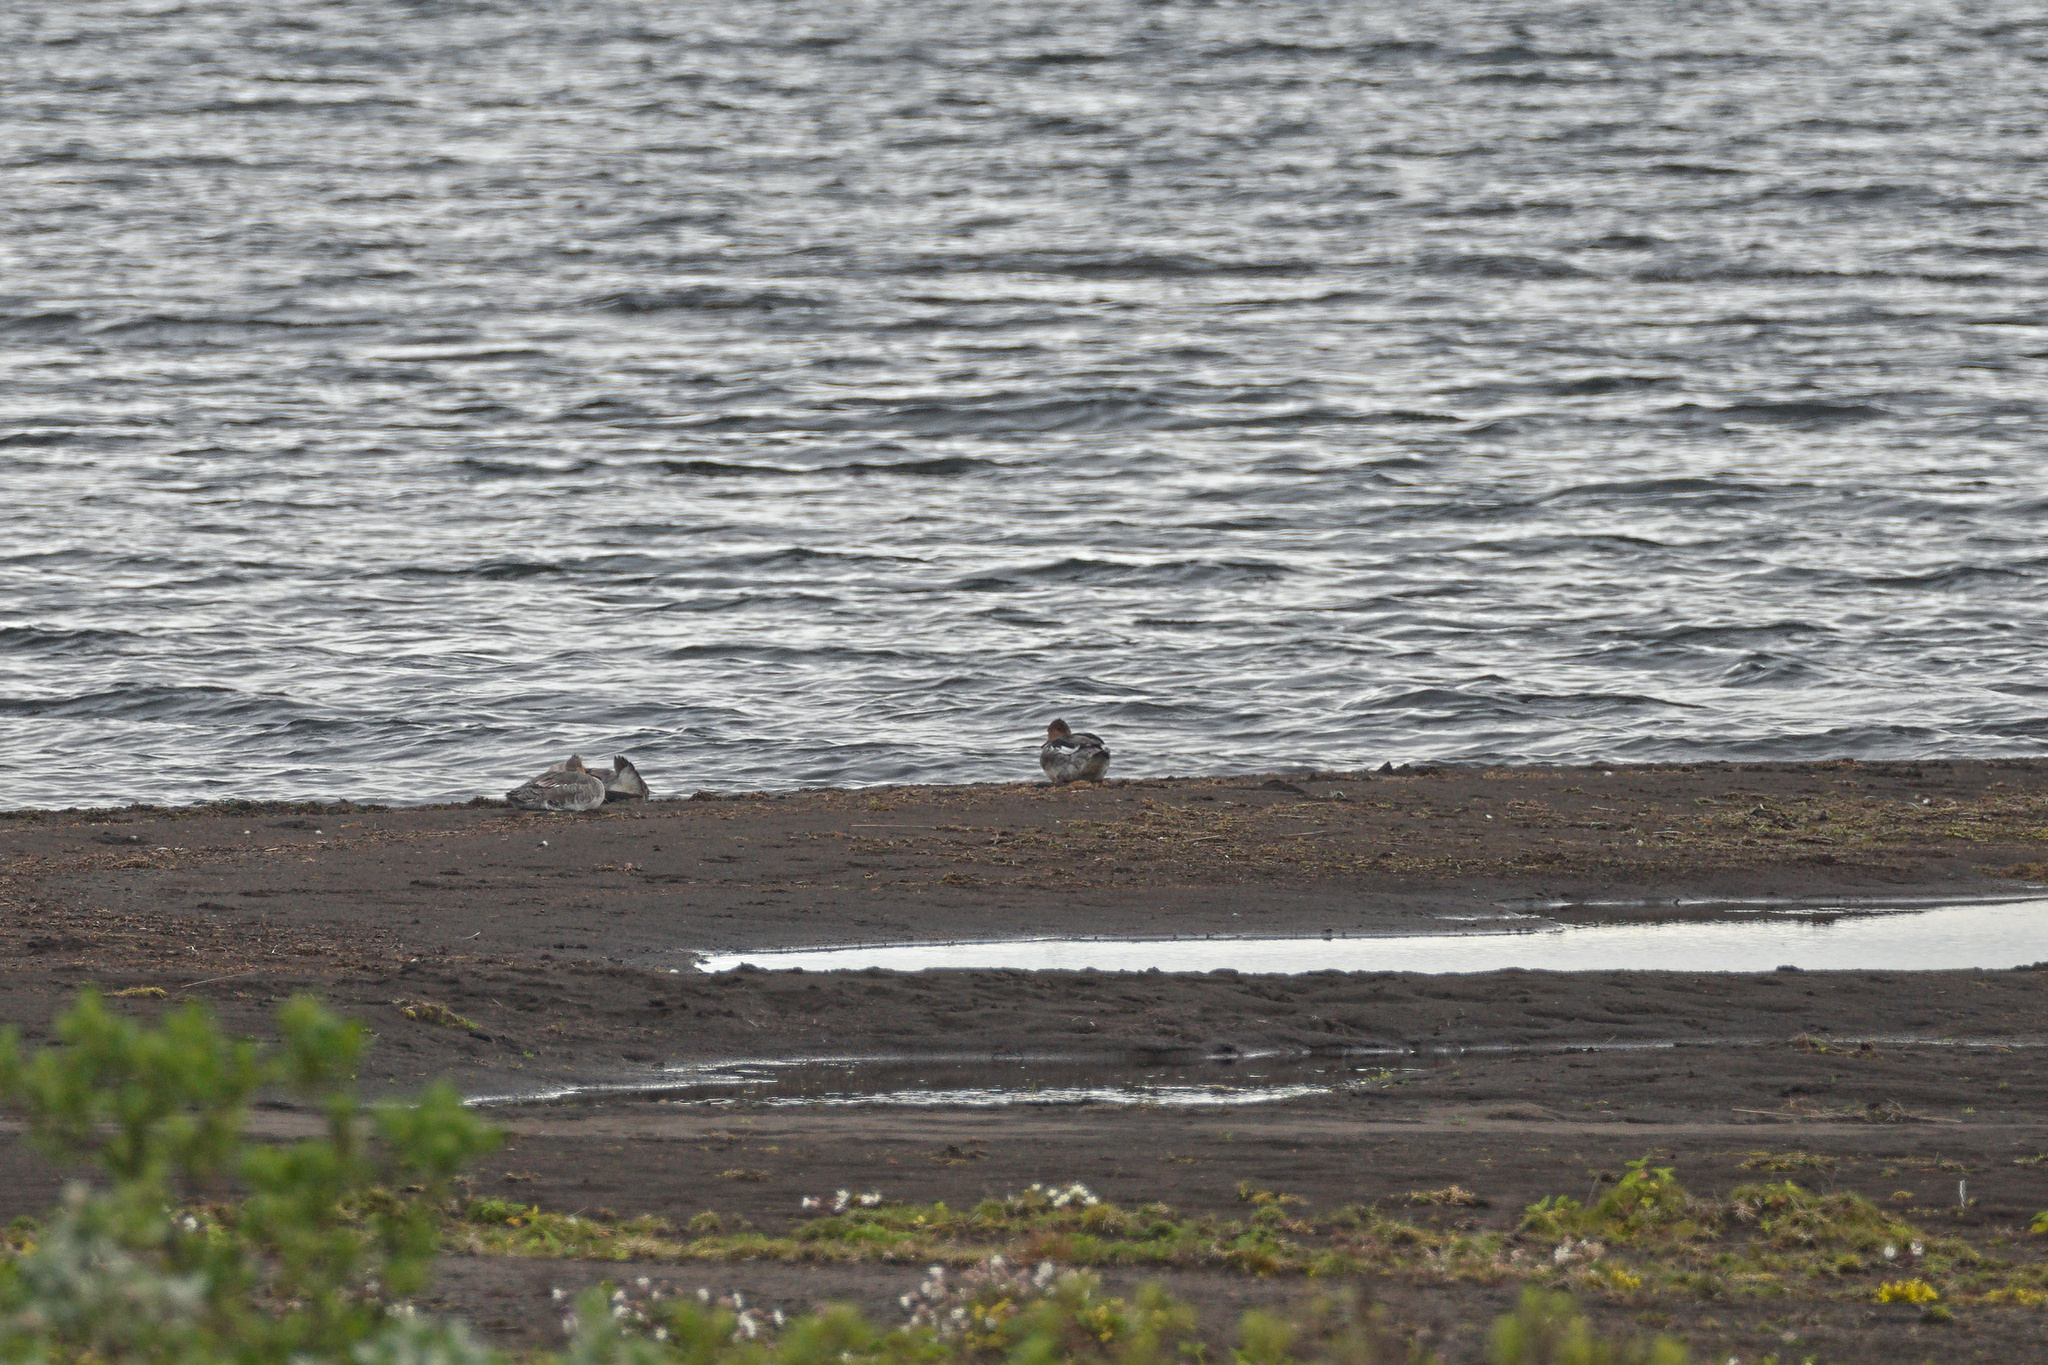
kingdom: Animalia
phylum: Chordata
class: Aves
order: Anseriformes
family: Anatidae
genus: Mergus
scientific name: Mergus serrator
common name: Red-breasted merganser
